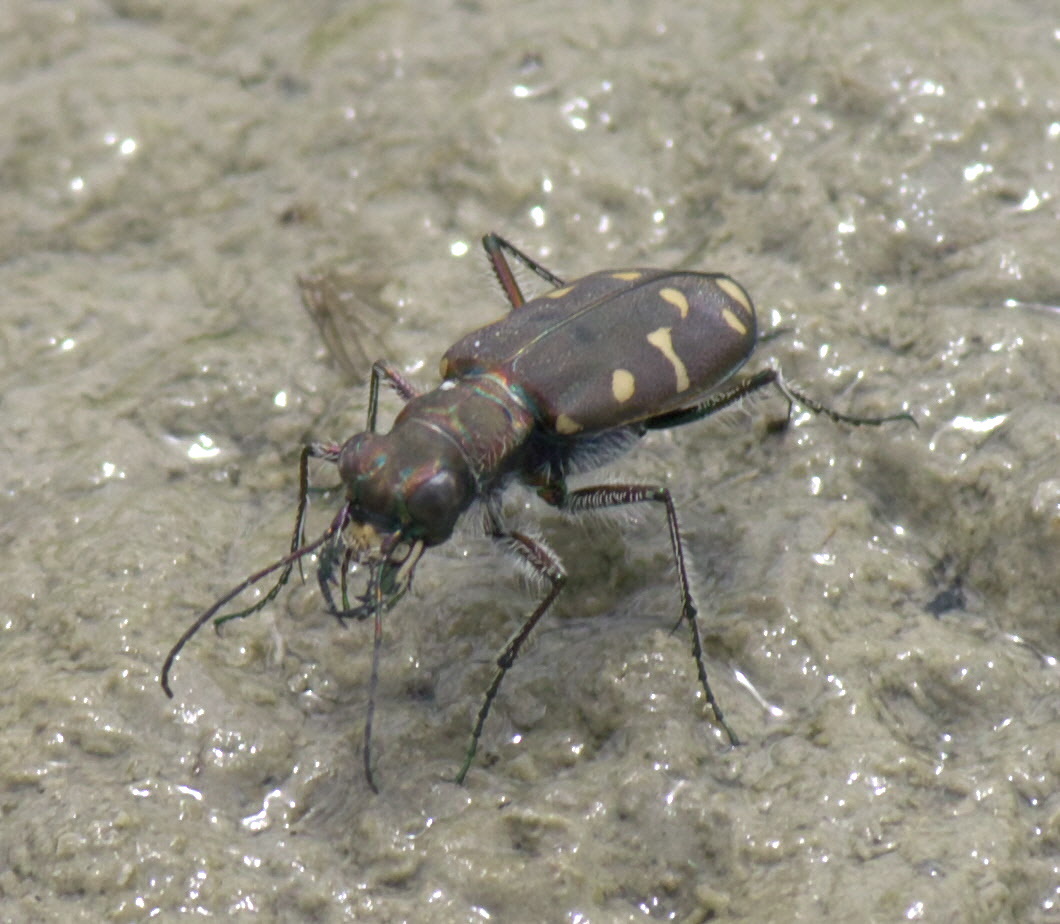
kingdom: Animalia
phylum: Arthropoda
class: Insecta
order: Coleoptera
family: Carabidae
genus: Cicindela
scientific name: Cicindela oregona
